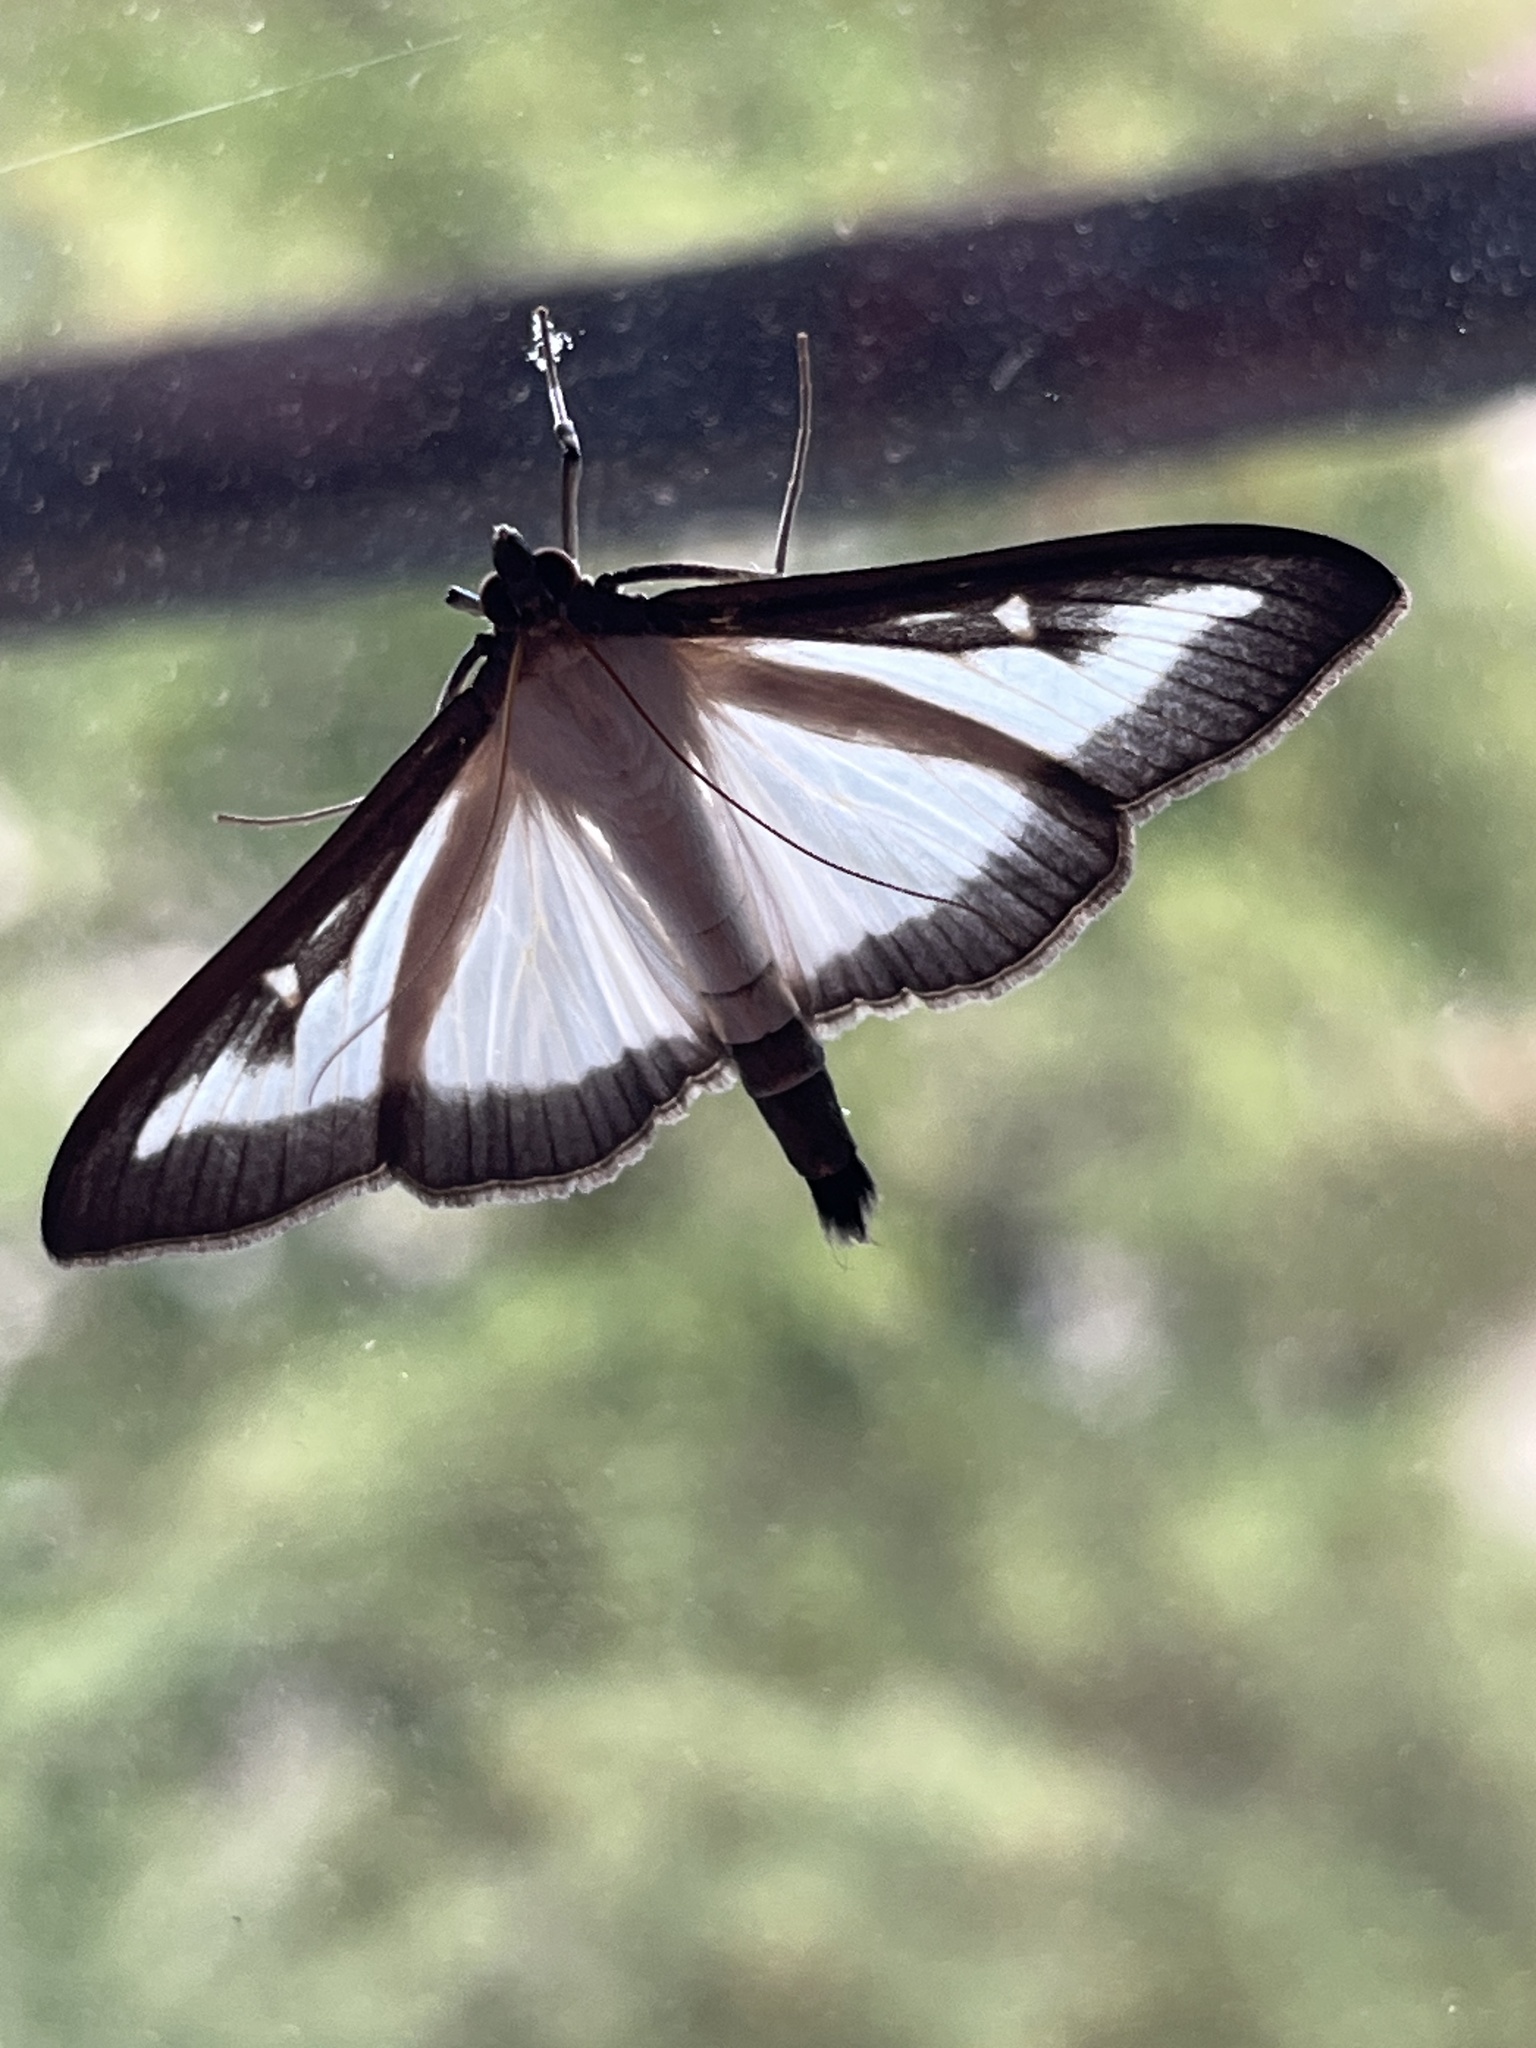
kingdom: Animalia
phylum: Arthropoda
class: Insecta
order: Lepidoptera
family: Crambidae
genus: Cydalima
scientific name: Cydalima perspectalis
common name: Box tree moth
